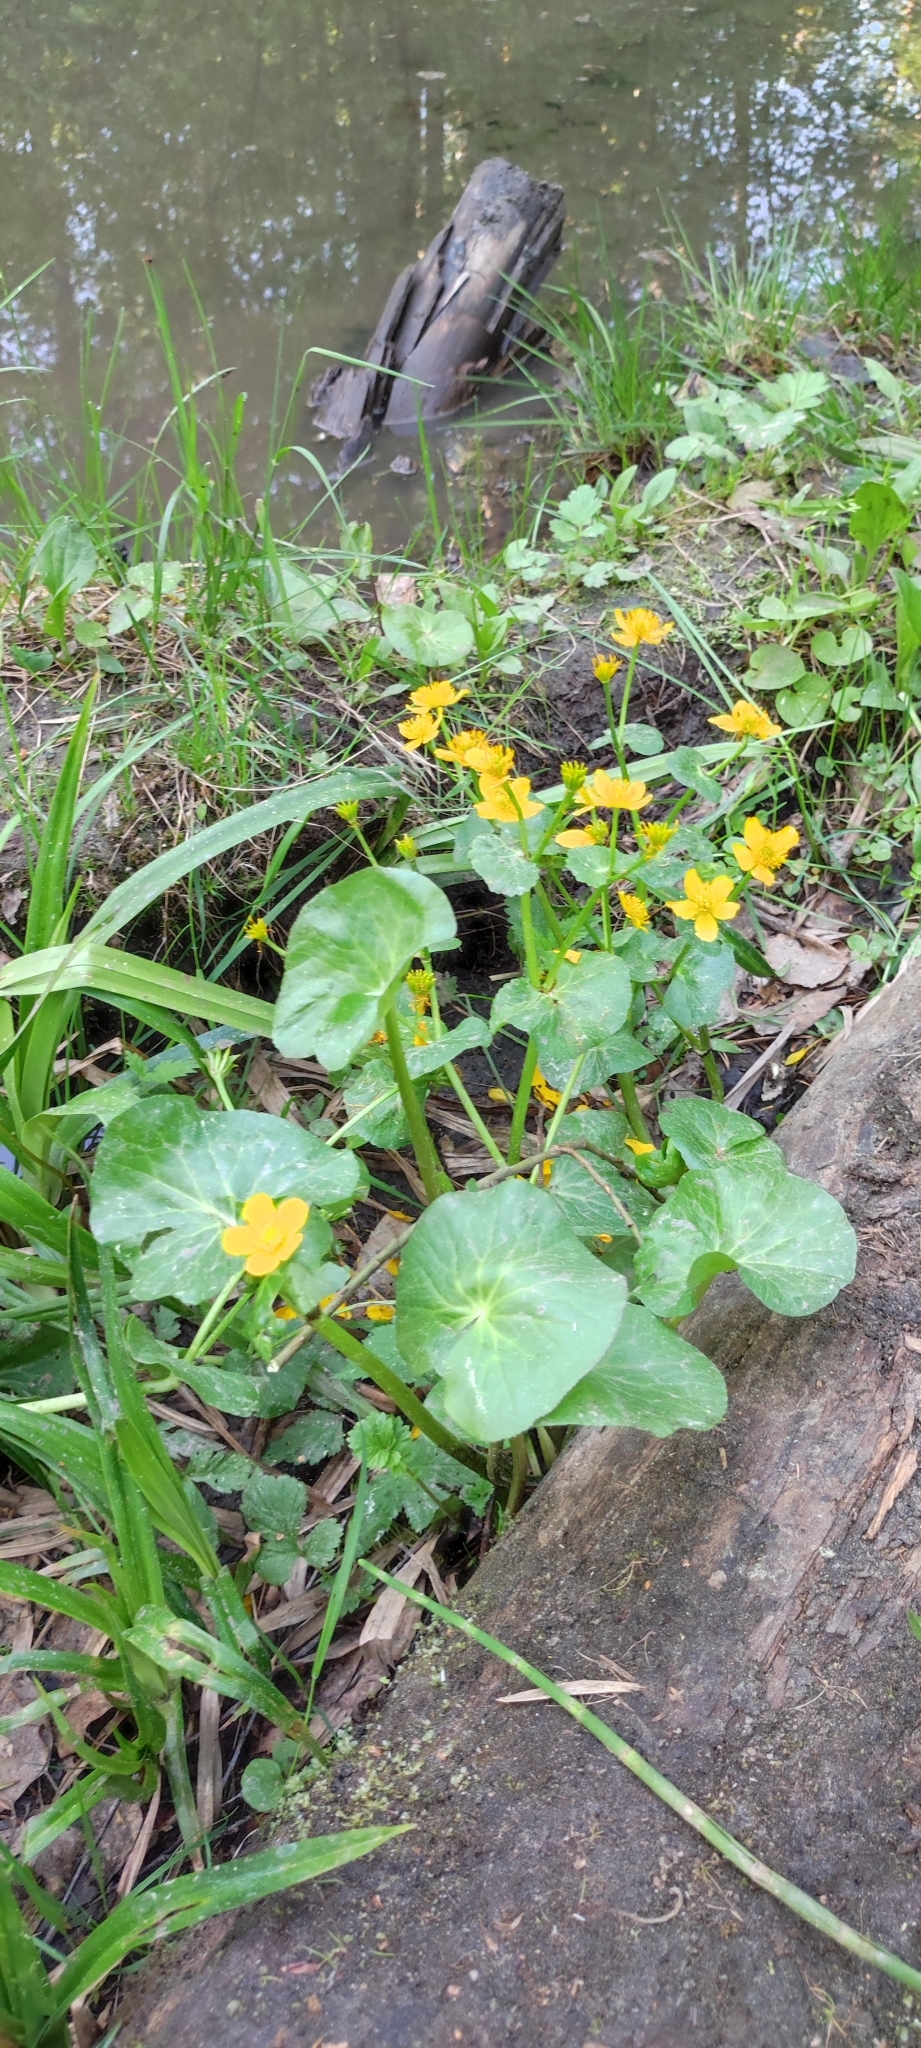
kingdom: Plantae
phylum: Tracheophyta
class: Magnoliopsida
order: Ranunculales
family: Ranunculaceae
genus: Caltha
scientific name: Caltha palustris
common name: Marsh marigold
